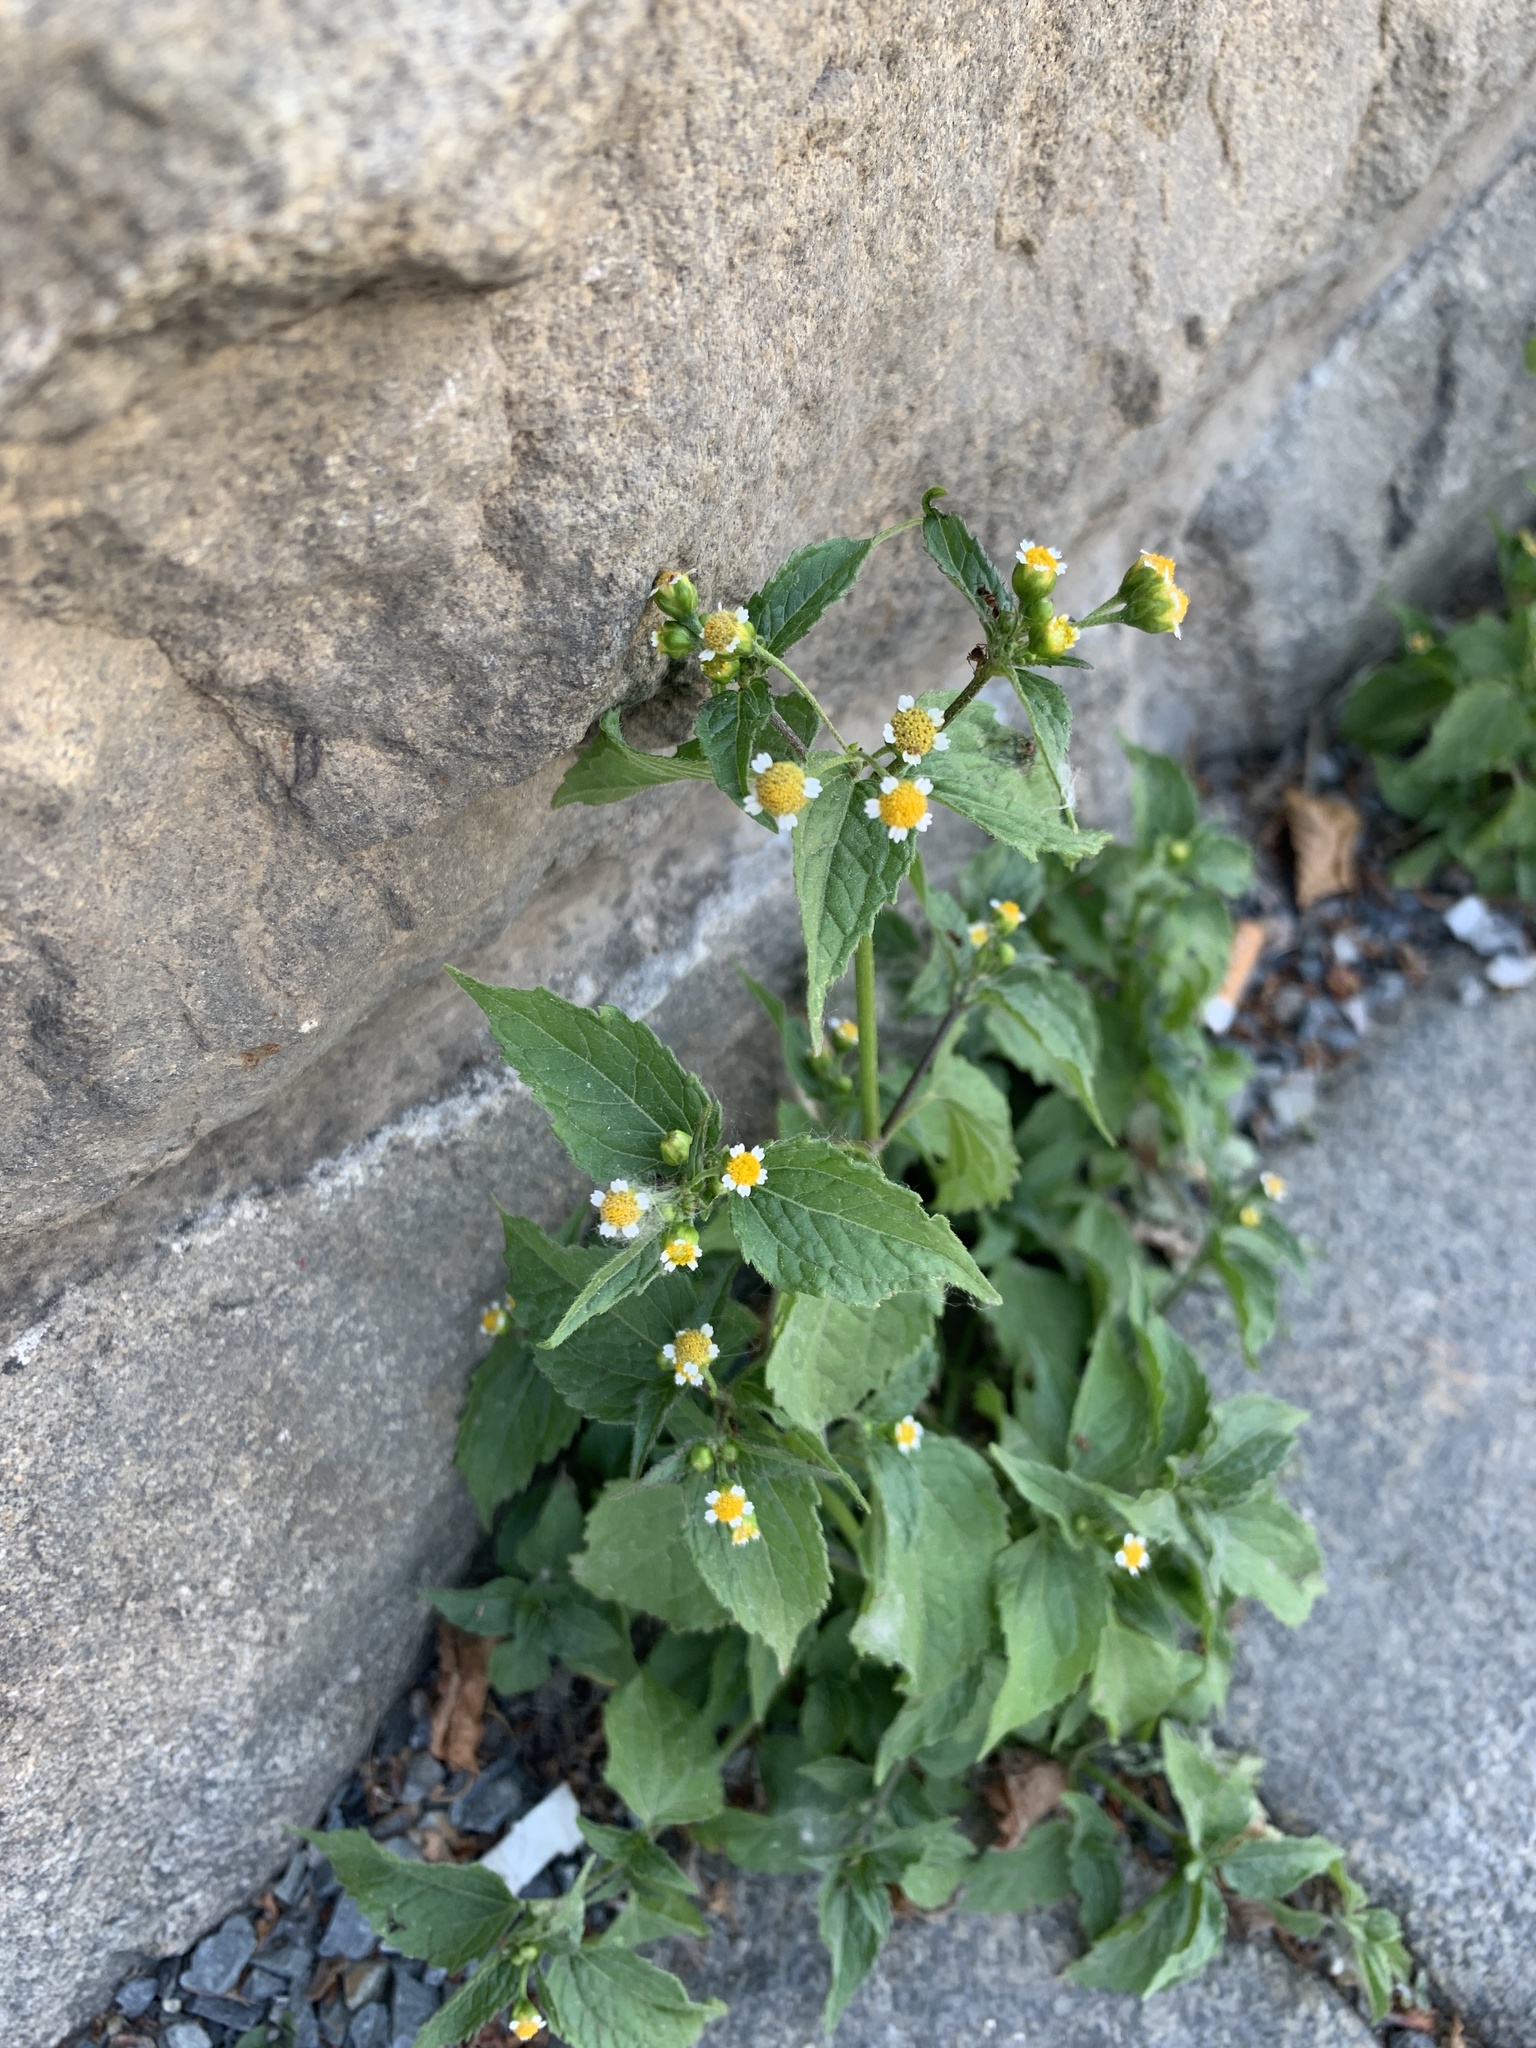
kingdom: Plantae
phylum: Tracheophyta
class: Magnoliopsida
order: Asterales
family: Asteraceae
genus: Galinsoga
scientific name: Galinsoga parviflora
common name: Gallant soldier
